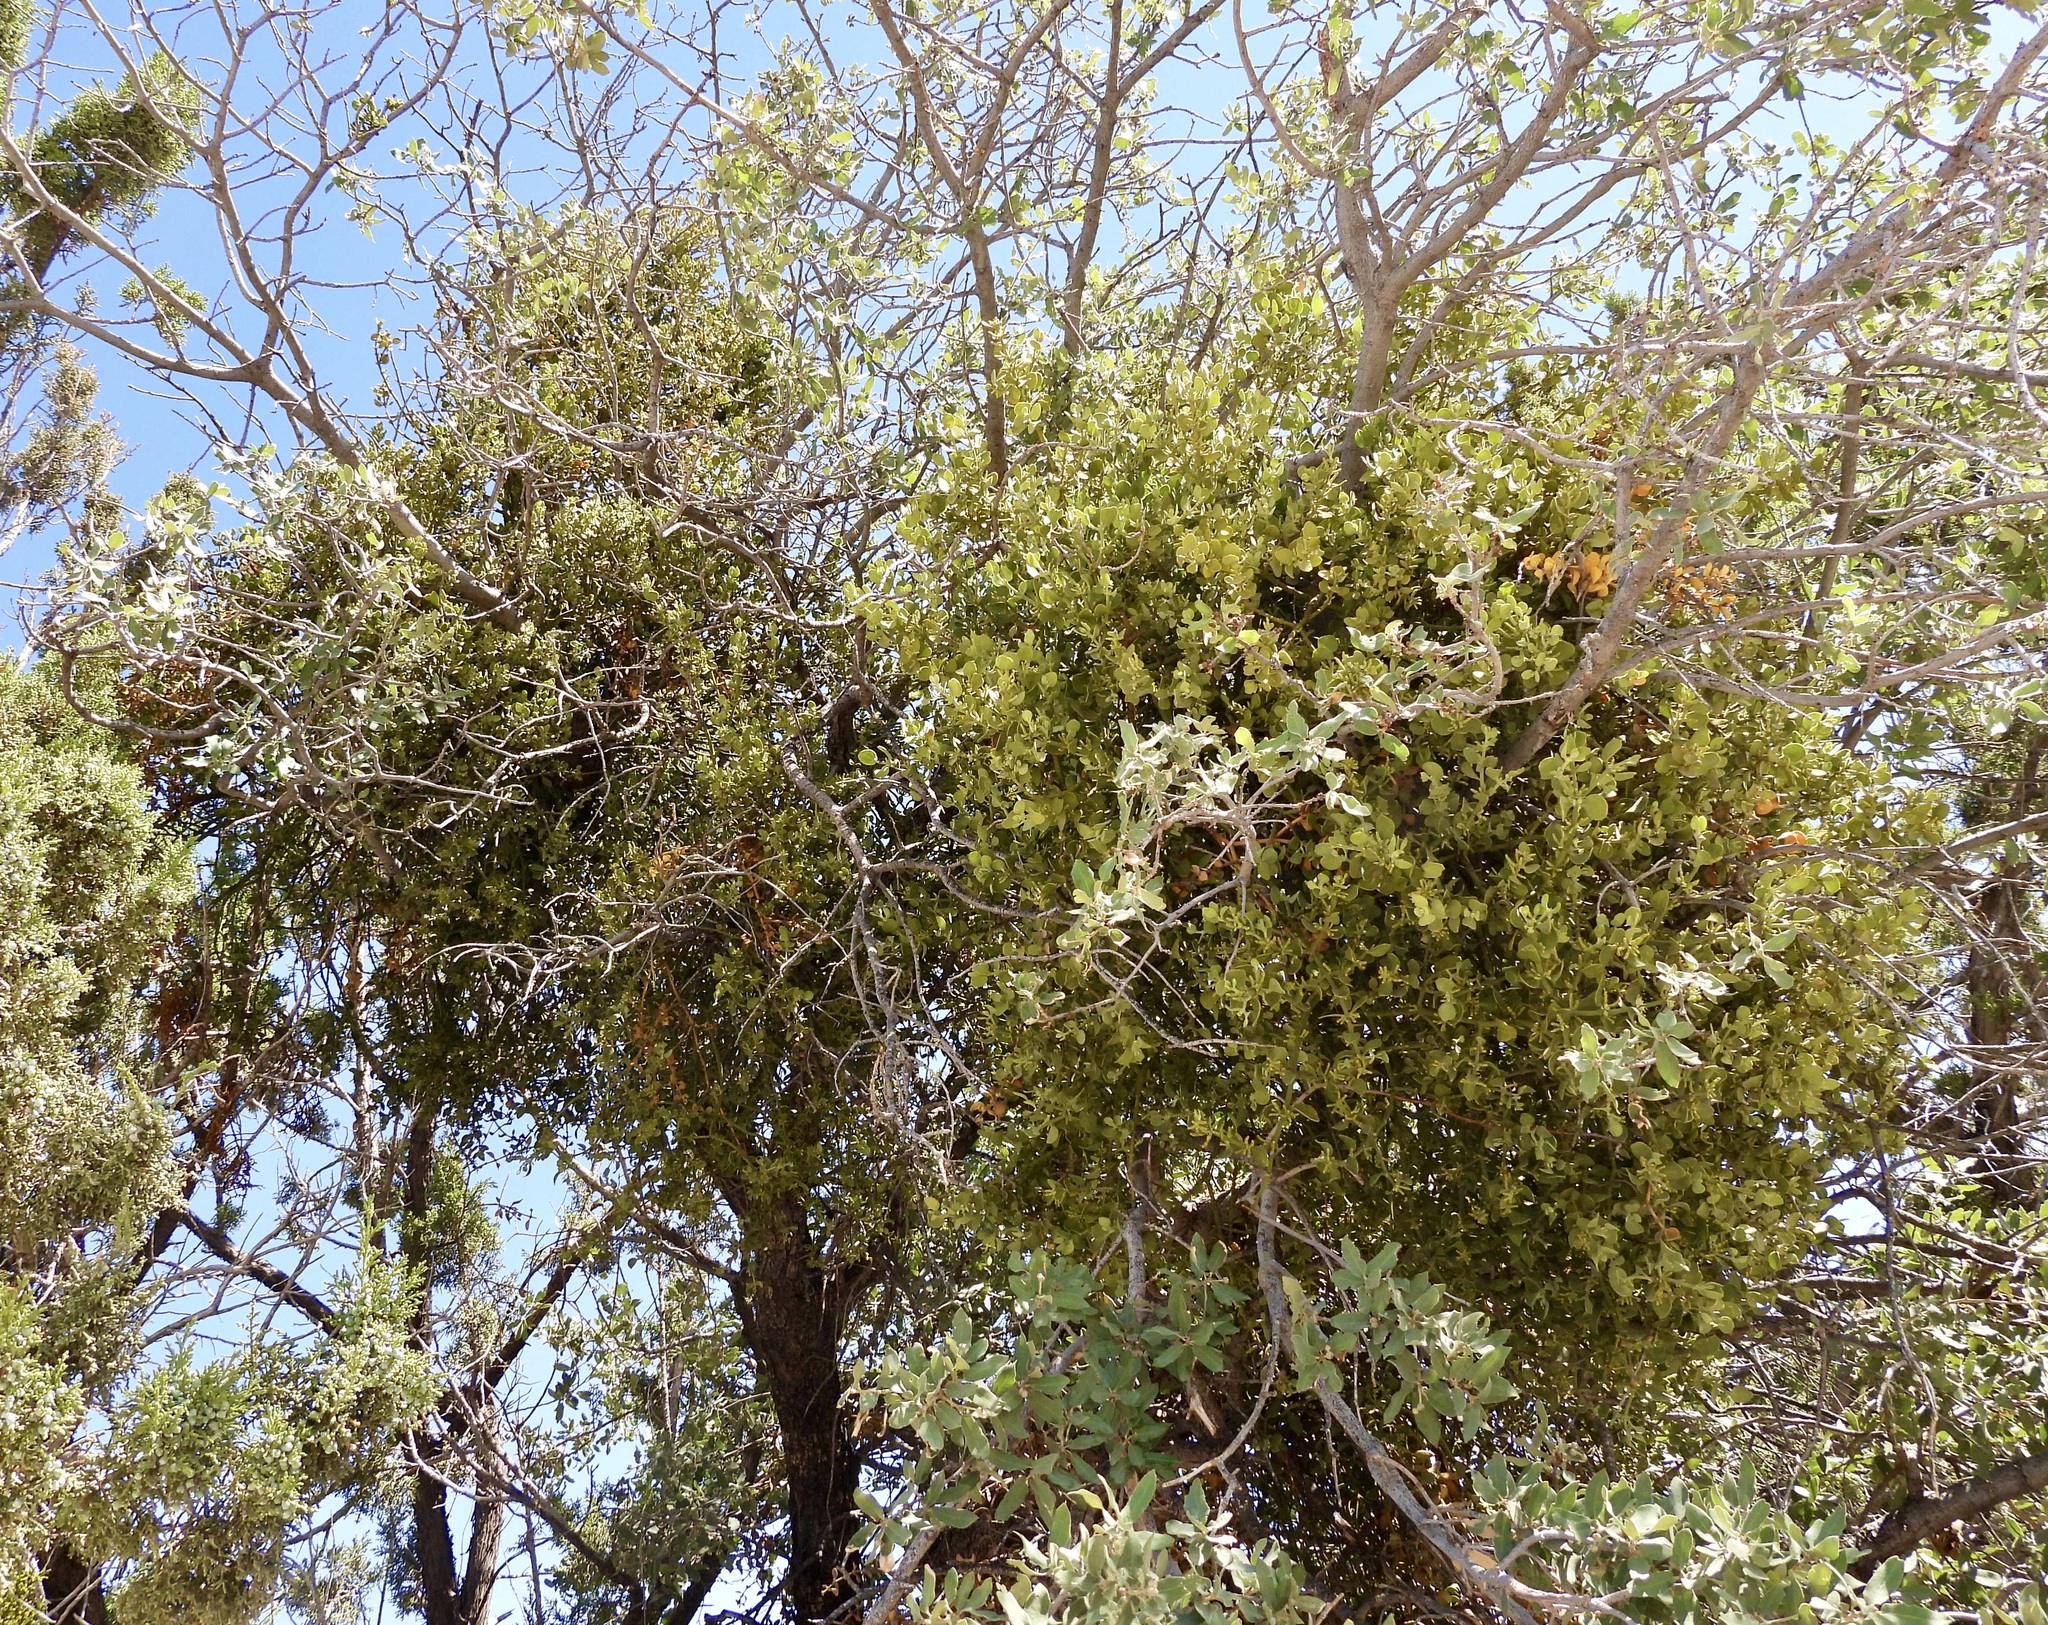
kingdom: Plantae
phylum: Tracheophyta
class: Magnoliopsida
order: Santalales
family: Viscaceae
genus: Phoradendron
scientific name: Phoradendron coryae
